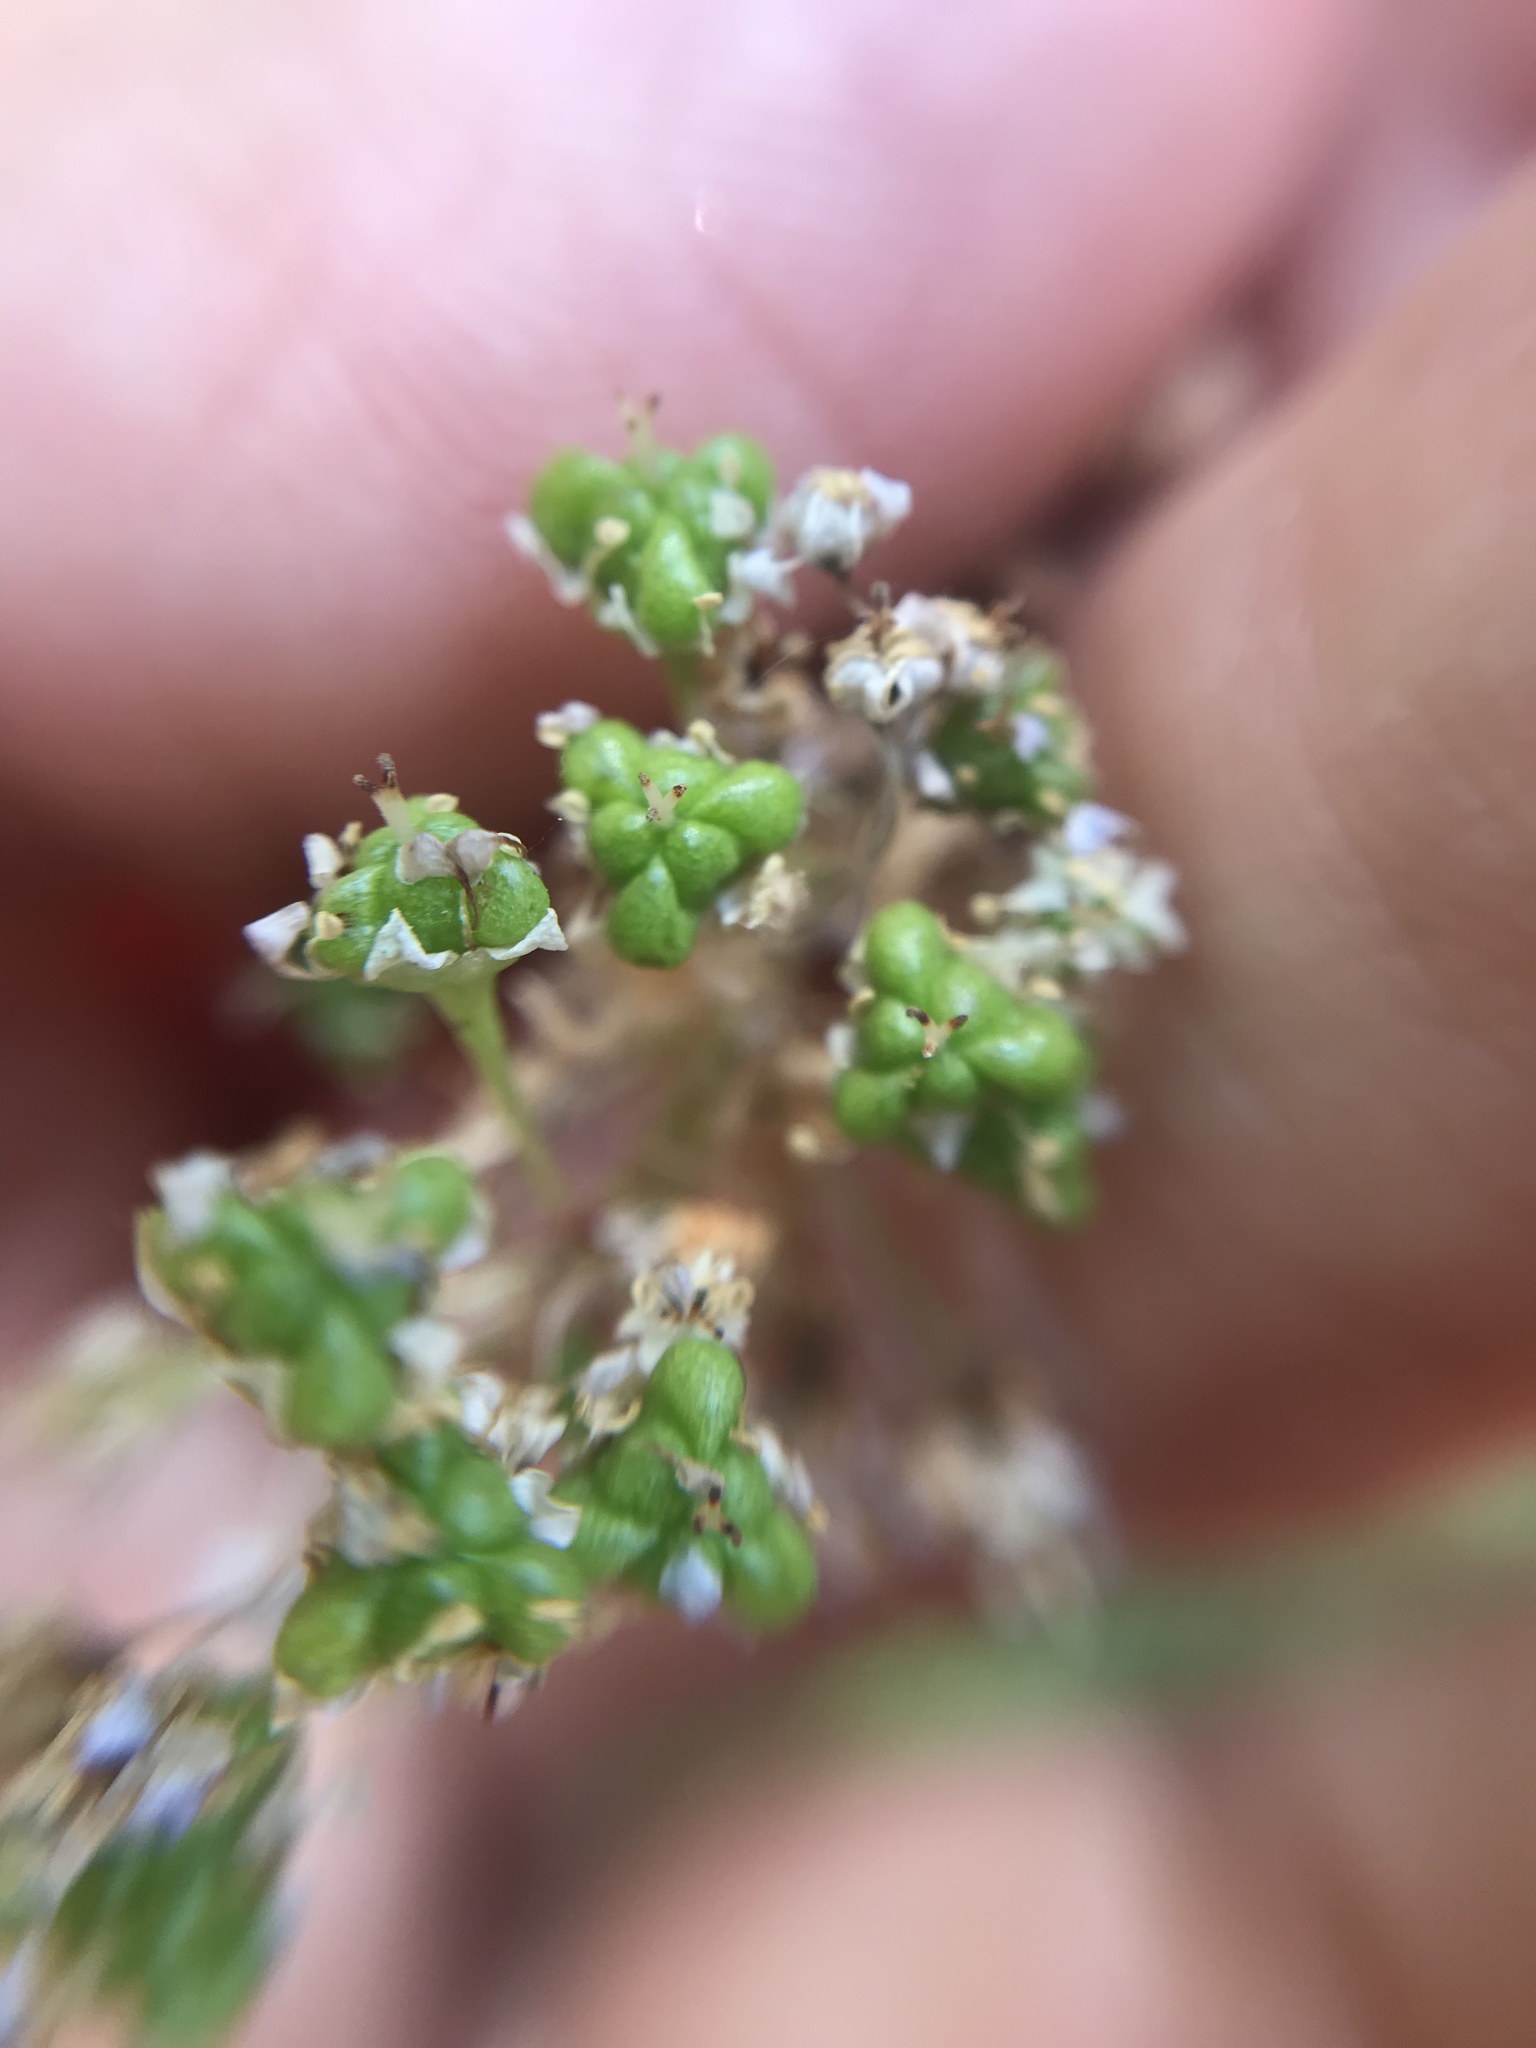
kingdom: Plantae
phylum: Tracheophyta
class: Magnoliopsida
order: Rosales
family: Rhamnaceae
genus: Ceanothus
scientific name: Ceanothus caeruleus
